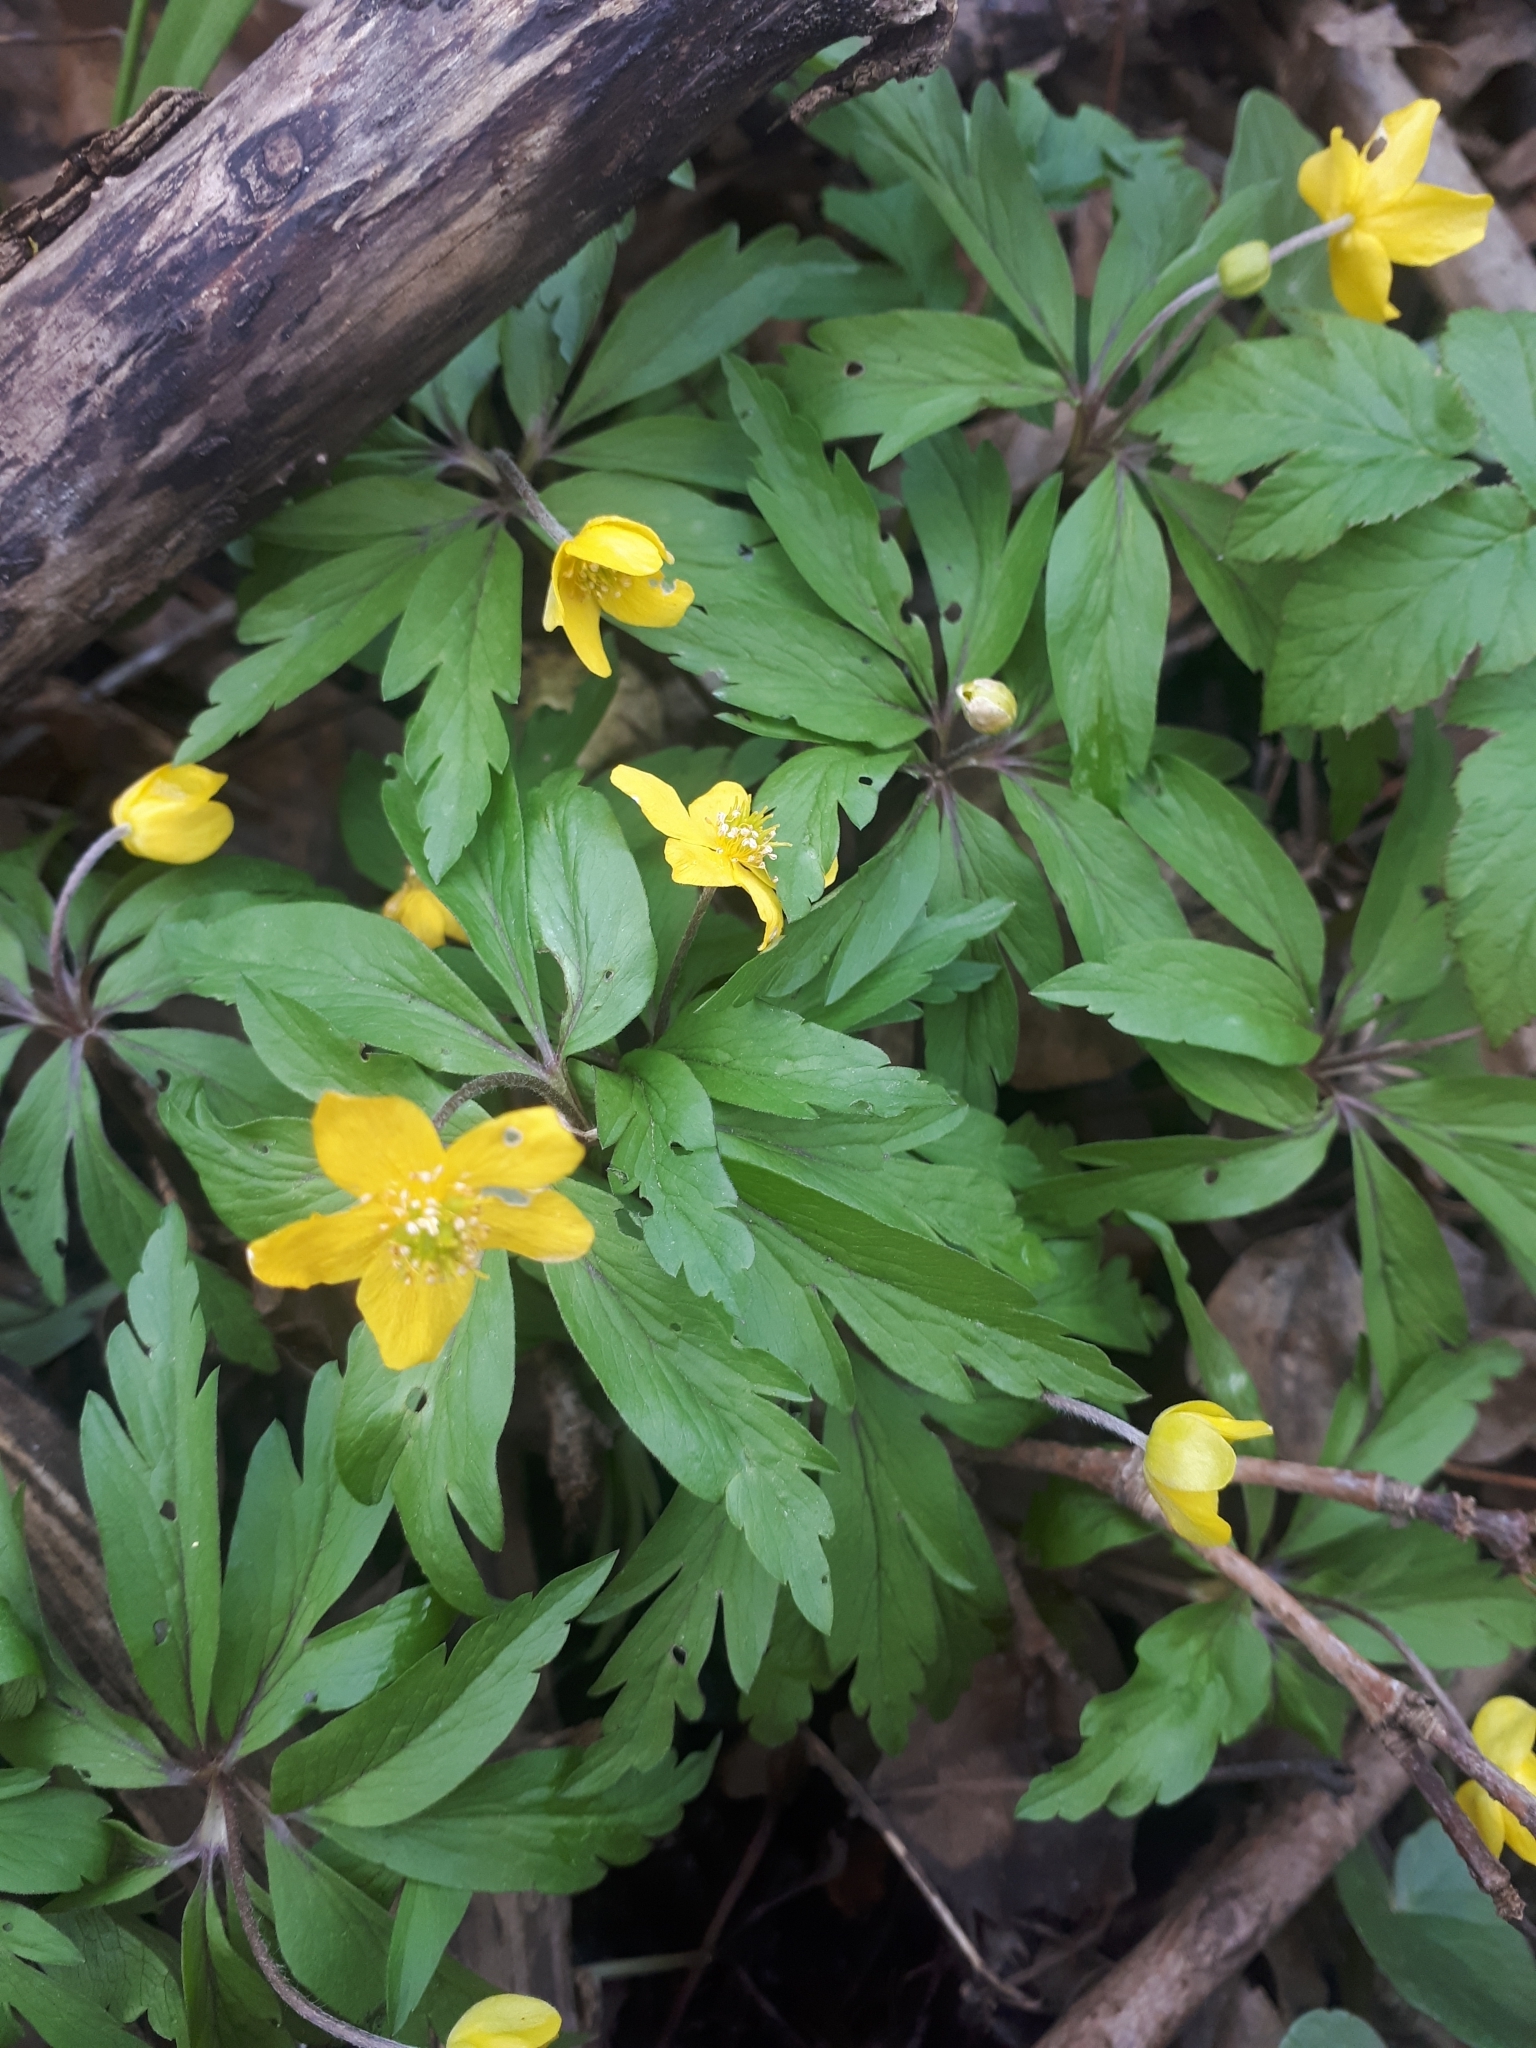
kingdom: Plantae
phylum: Tracheophyta
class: Magnoliopsida
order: Ranunculales
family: Ranunculaceae
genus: Anemone
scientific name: Anemone ranunculoides
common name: Yellow anemone
